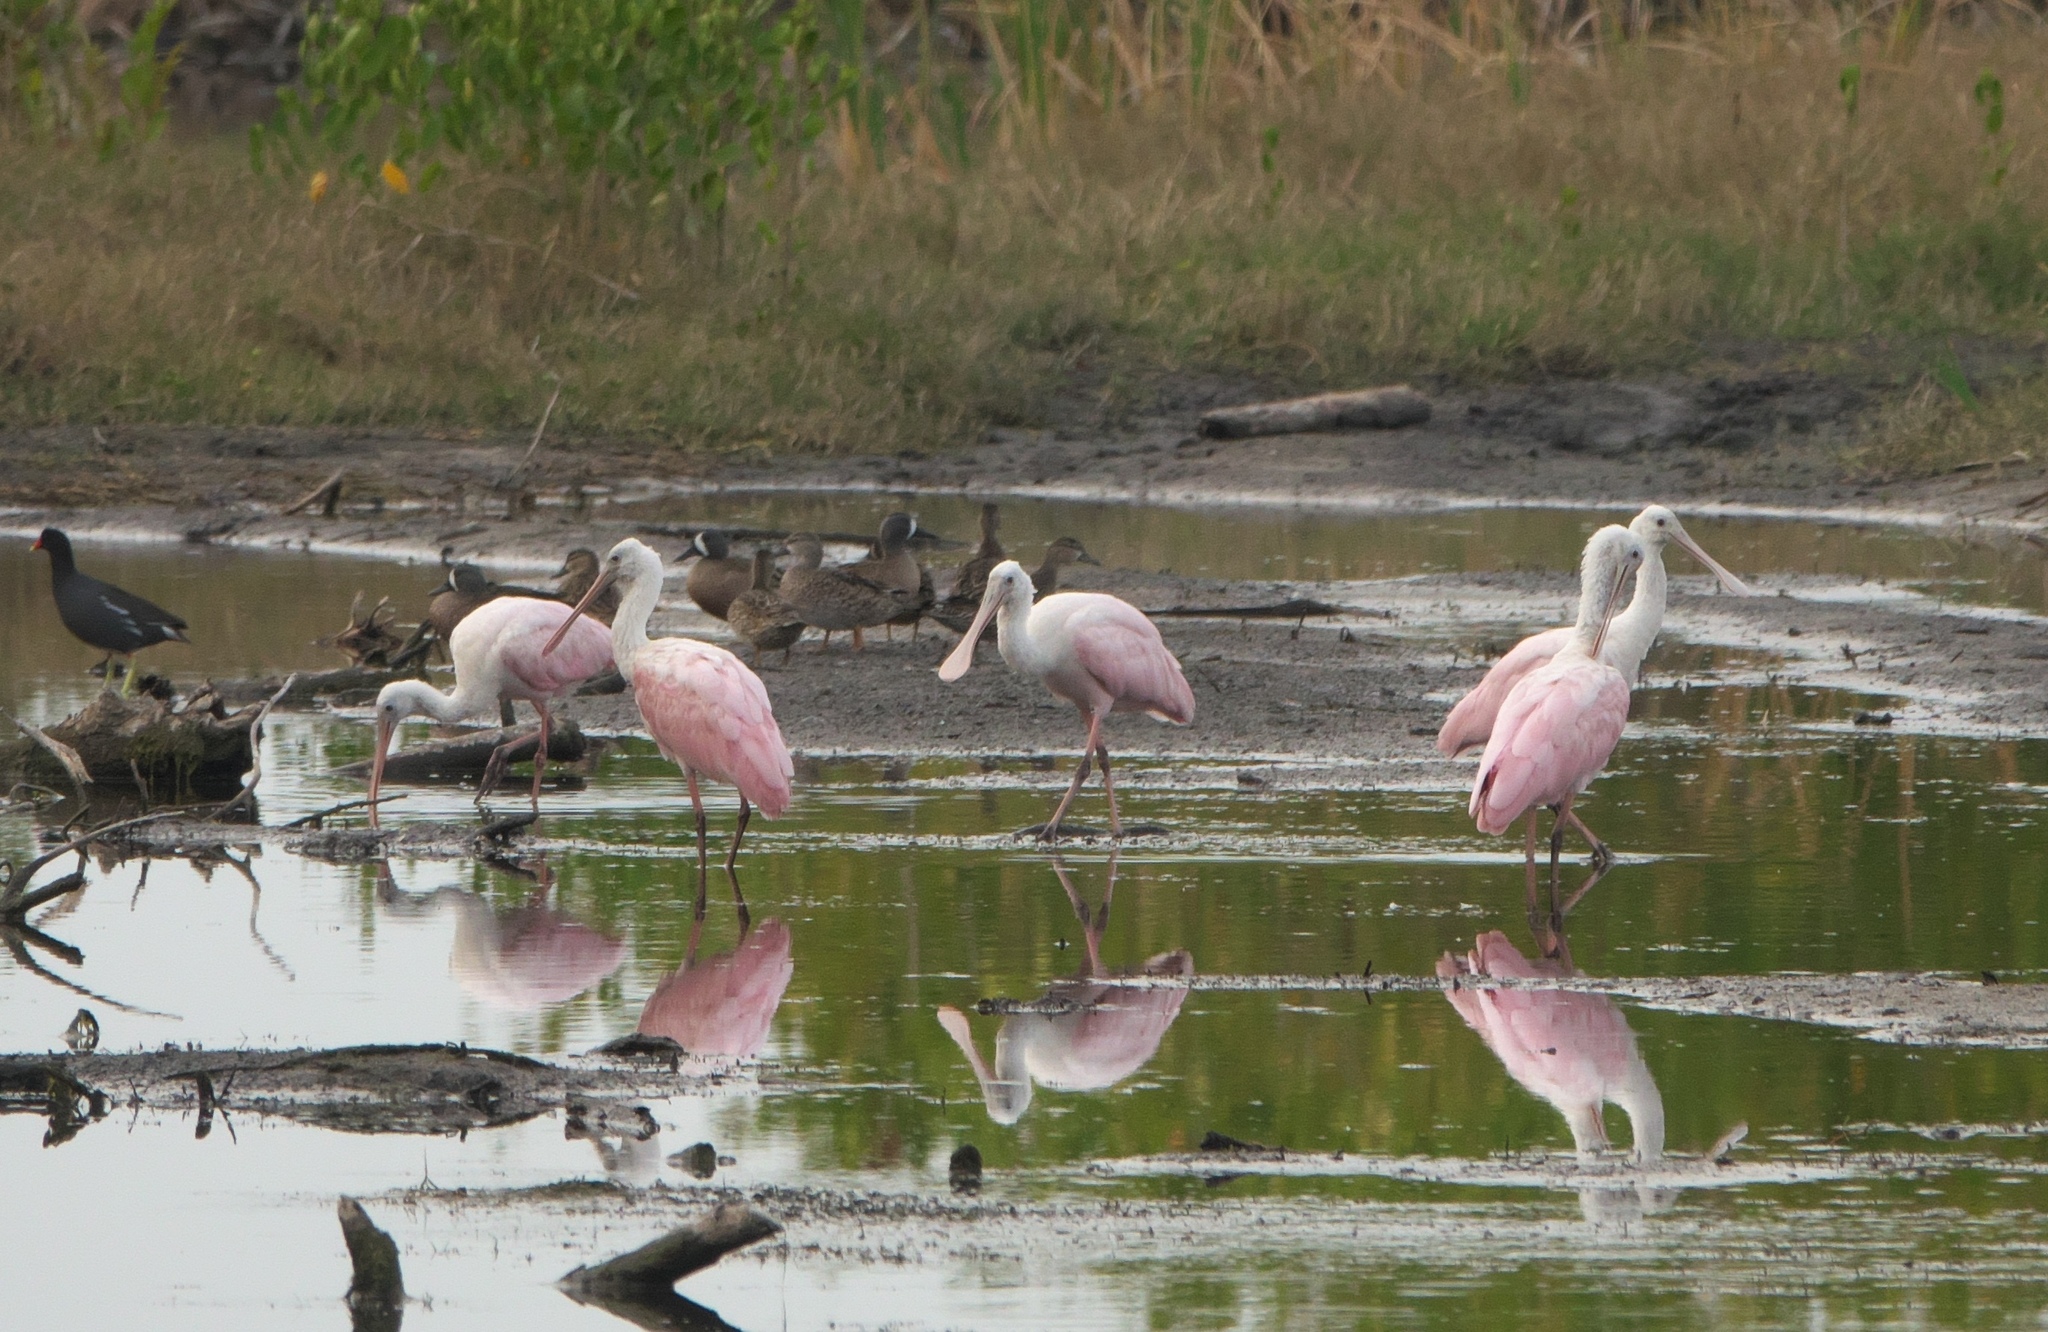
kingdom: Animalia
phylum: Chordata
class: Aves
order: Pelecaniformes
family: Threskiornithidae
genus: Platalea
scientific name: Platalea ajaja
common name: Roseate spoonbill
